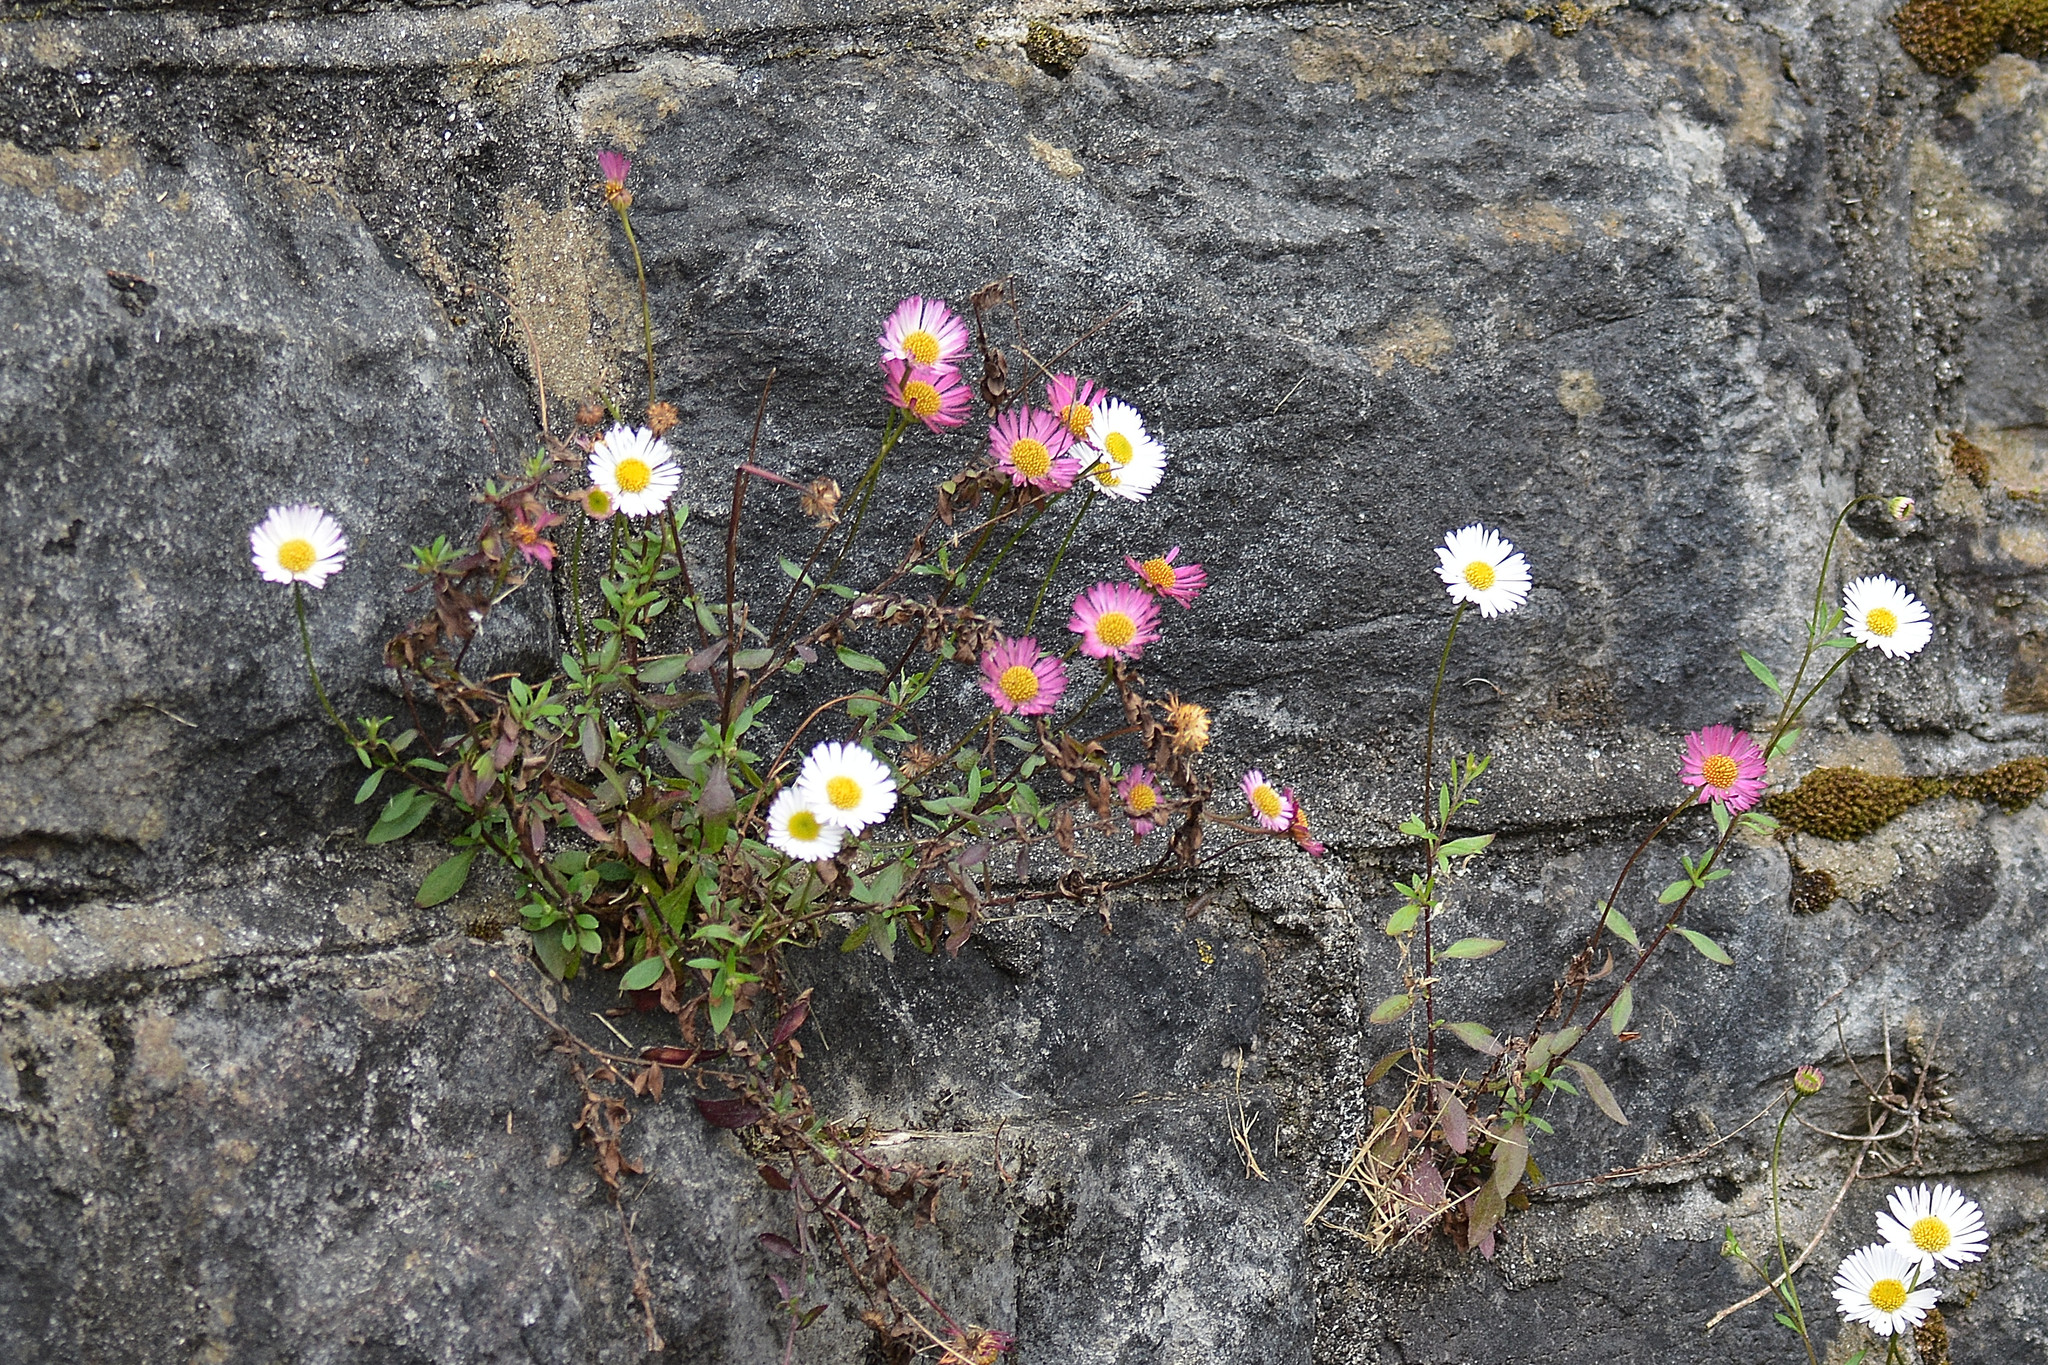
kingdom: Plantae
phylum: Tracheophyta
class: Magnoliopsida
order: Asterales
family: Asteraceae
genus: Erigeron
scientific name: Erigeron karvinskianus
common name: Mexican fleabane
